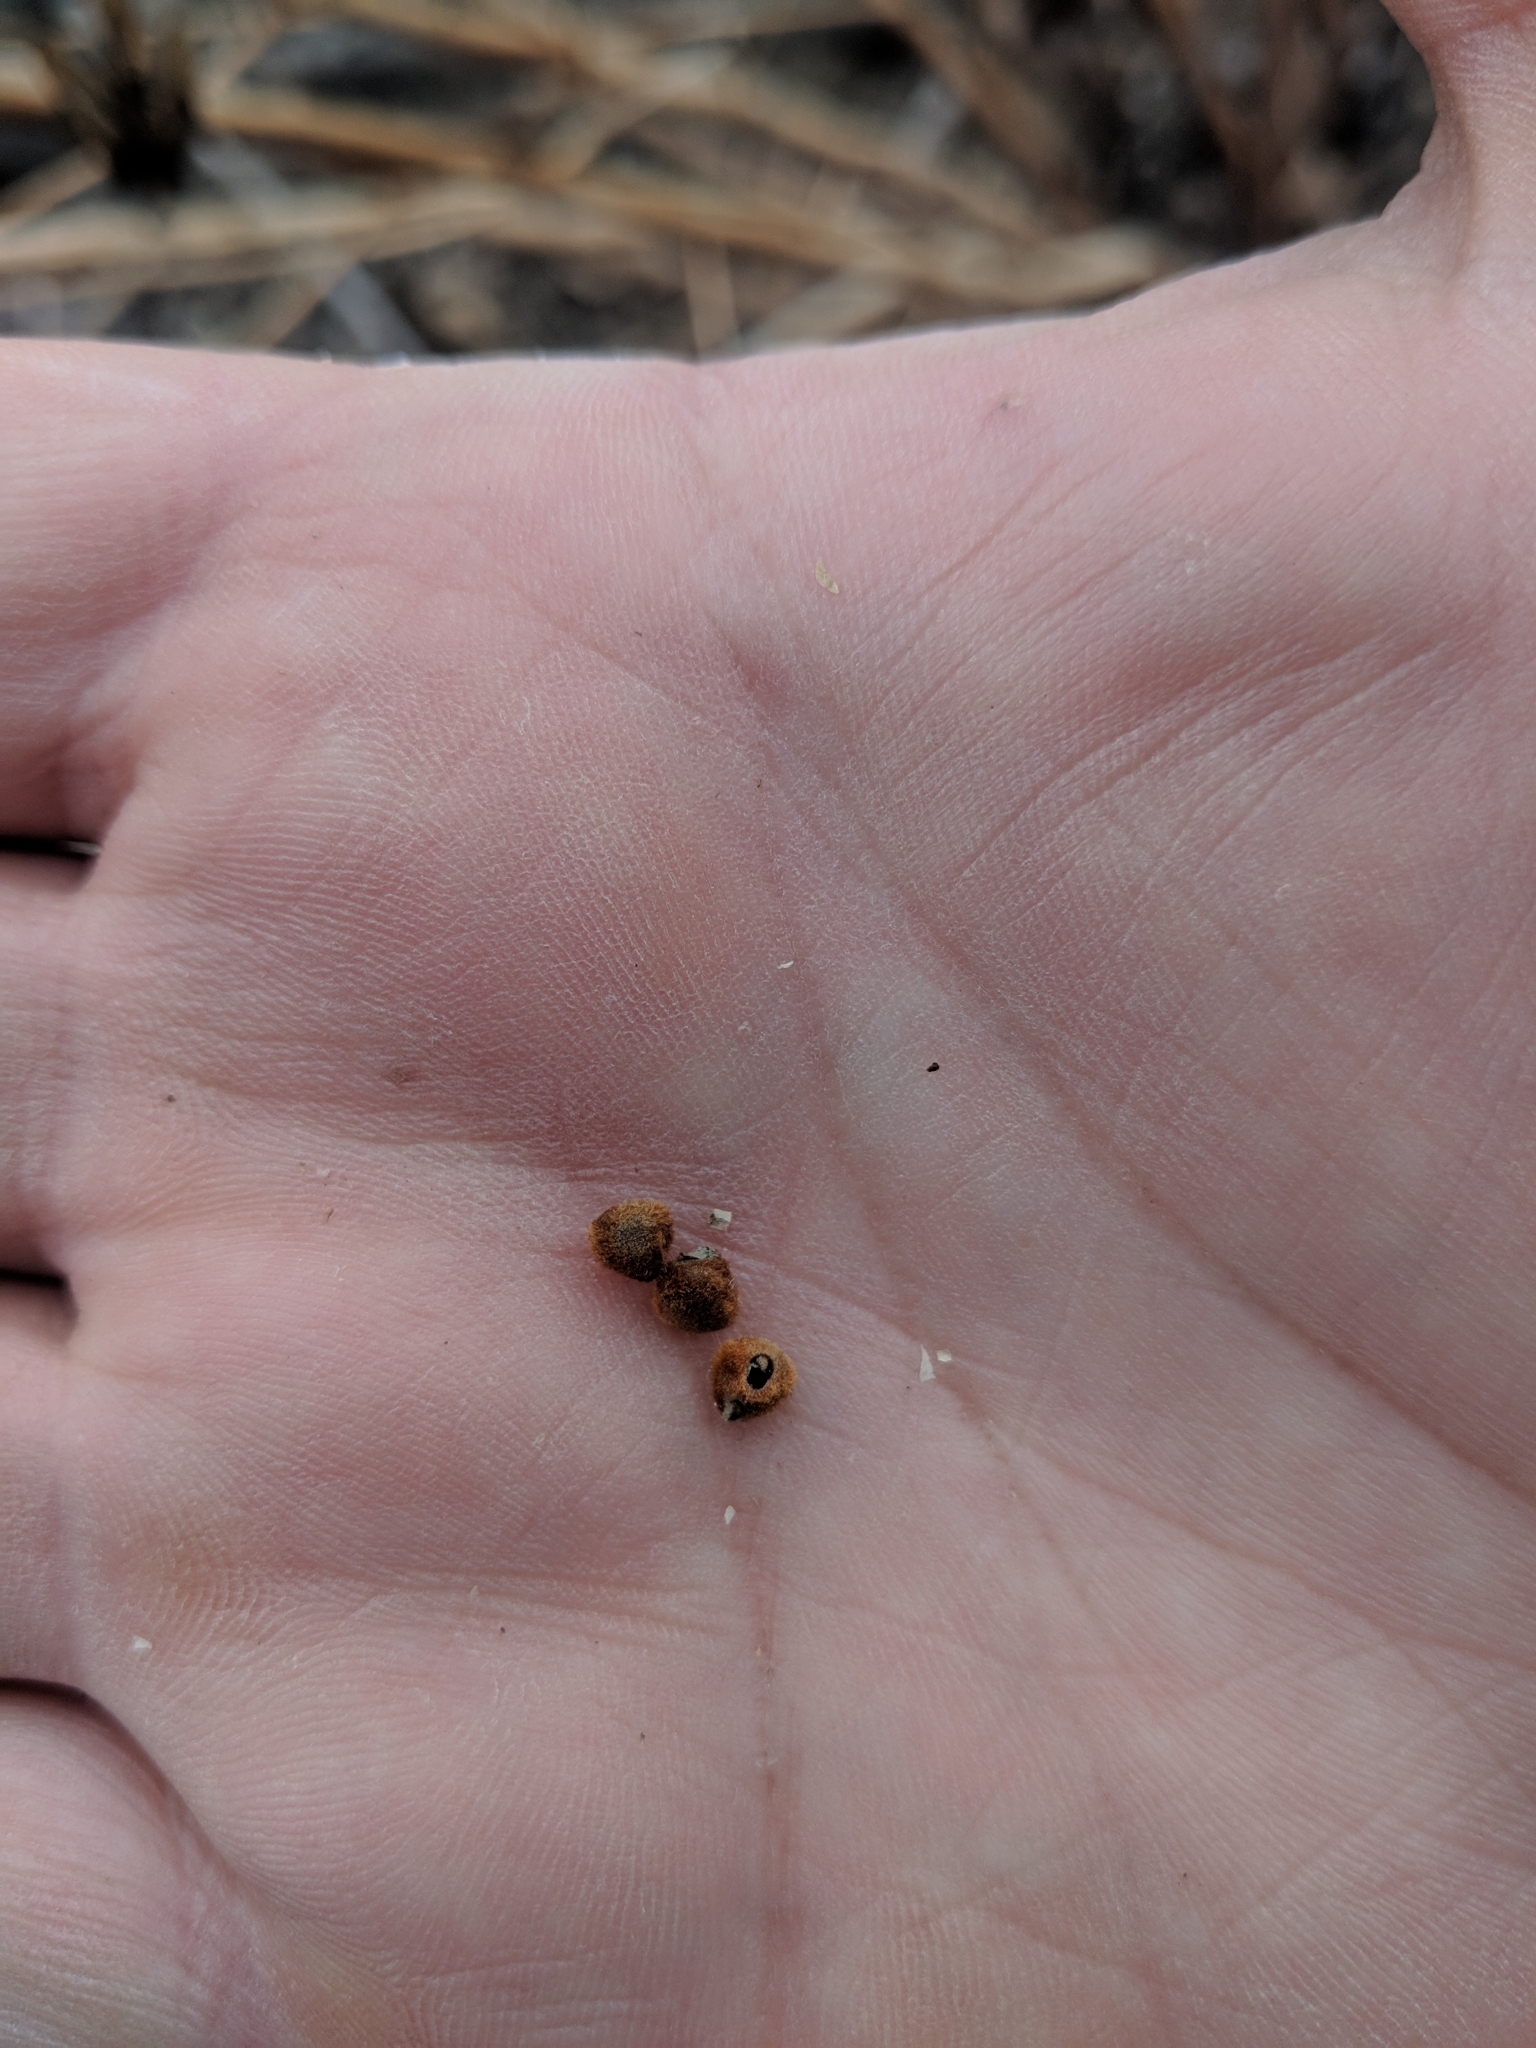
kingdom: Plantae
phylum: Tracheophyta
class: Magnoliopsida
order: Malvales
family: Malvaceae
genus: Hibiscus
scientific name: Hibiscus laevis
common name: Scarlet rose-mallow
